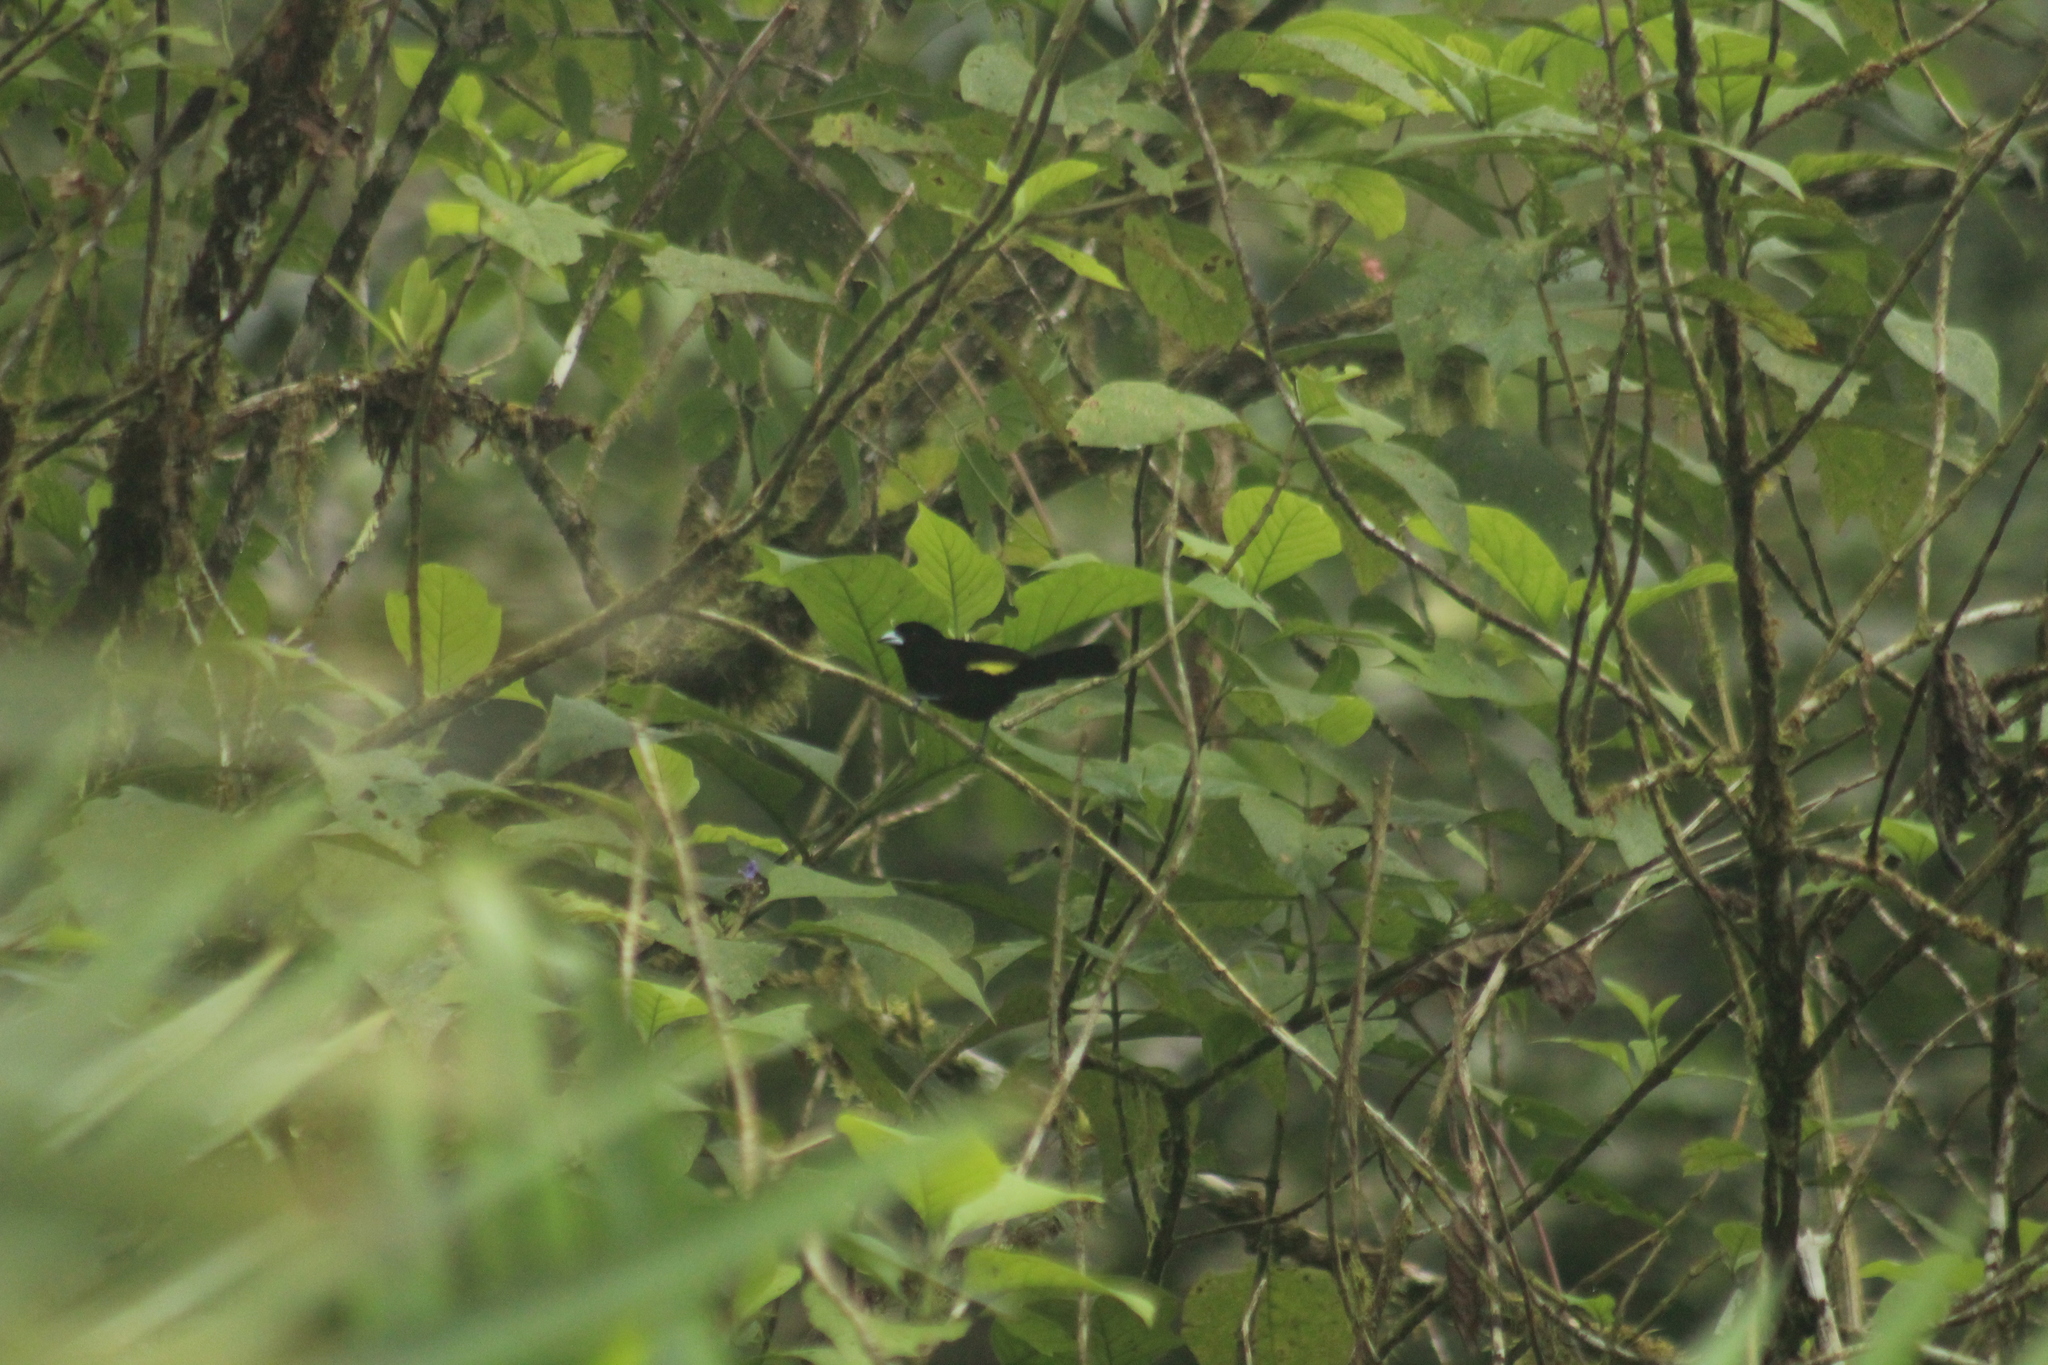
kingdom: Animalia
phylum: Chordata
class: Aves
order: Passeriformes
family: Thraupidae
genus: Ramphocelus
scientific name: Ramphocelus icteronotus
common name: Lemon-rumped tanager
